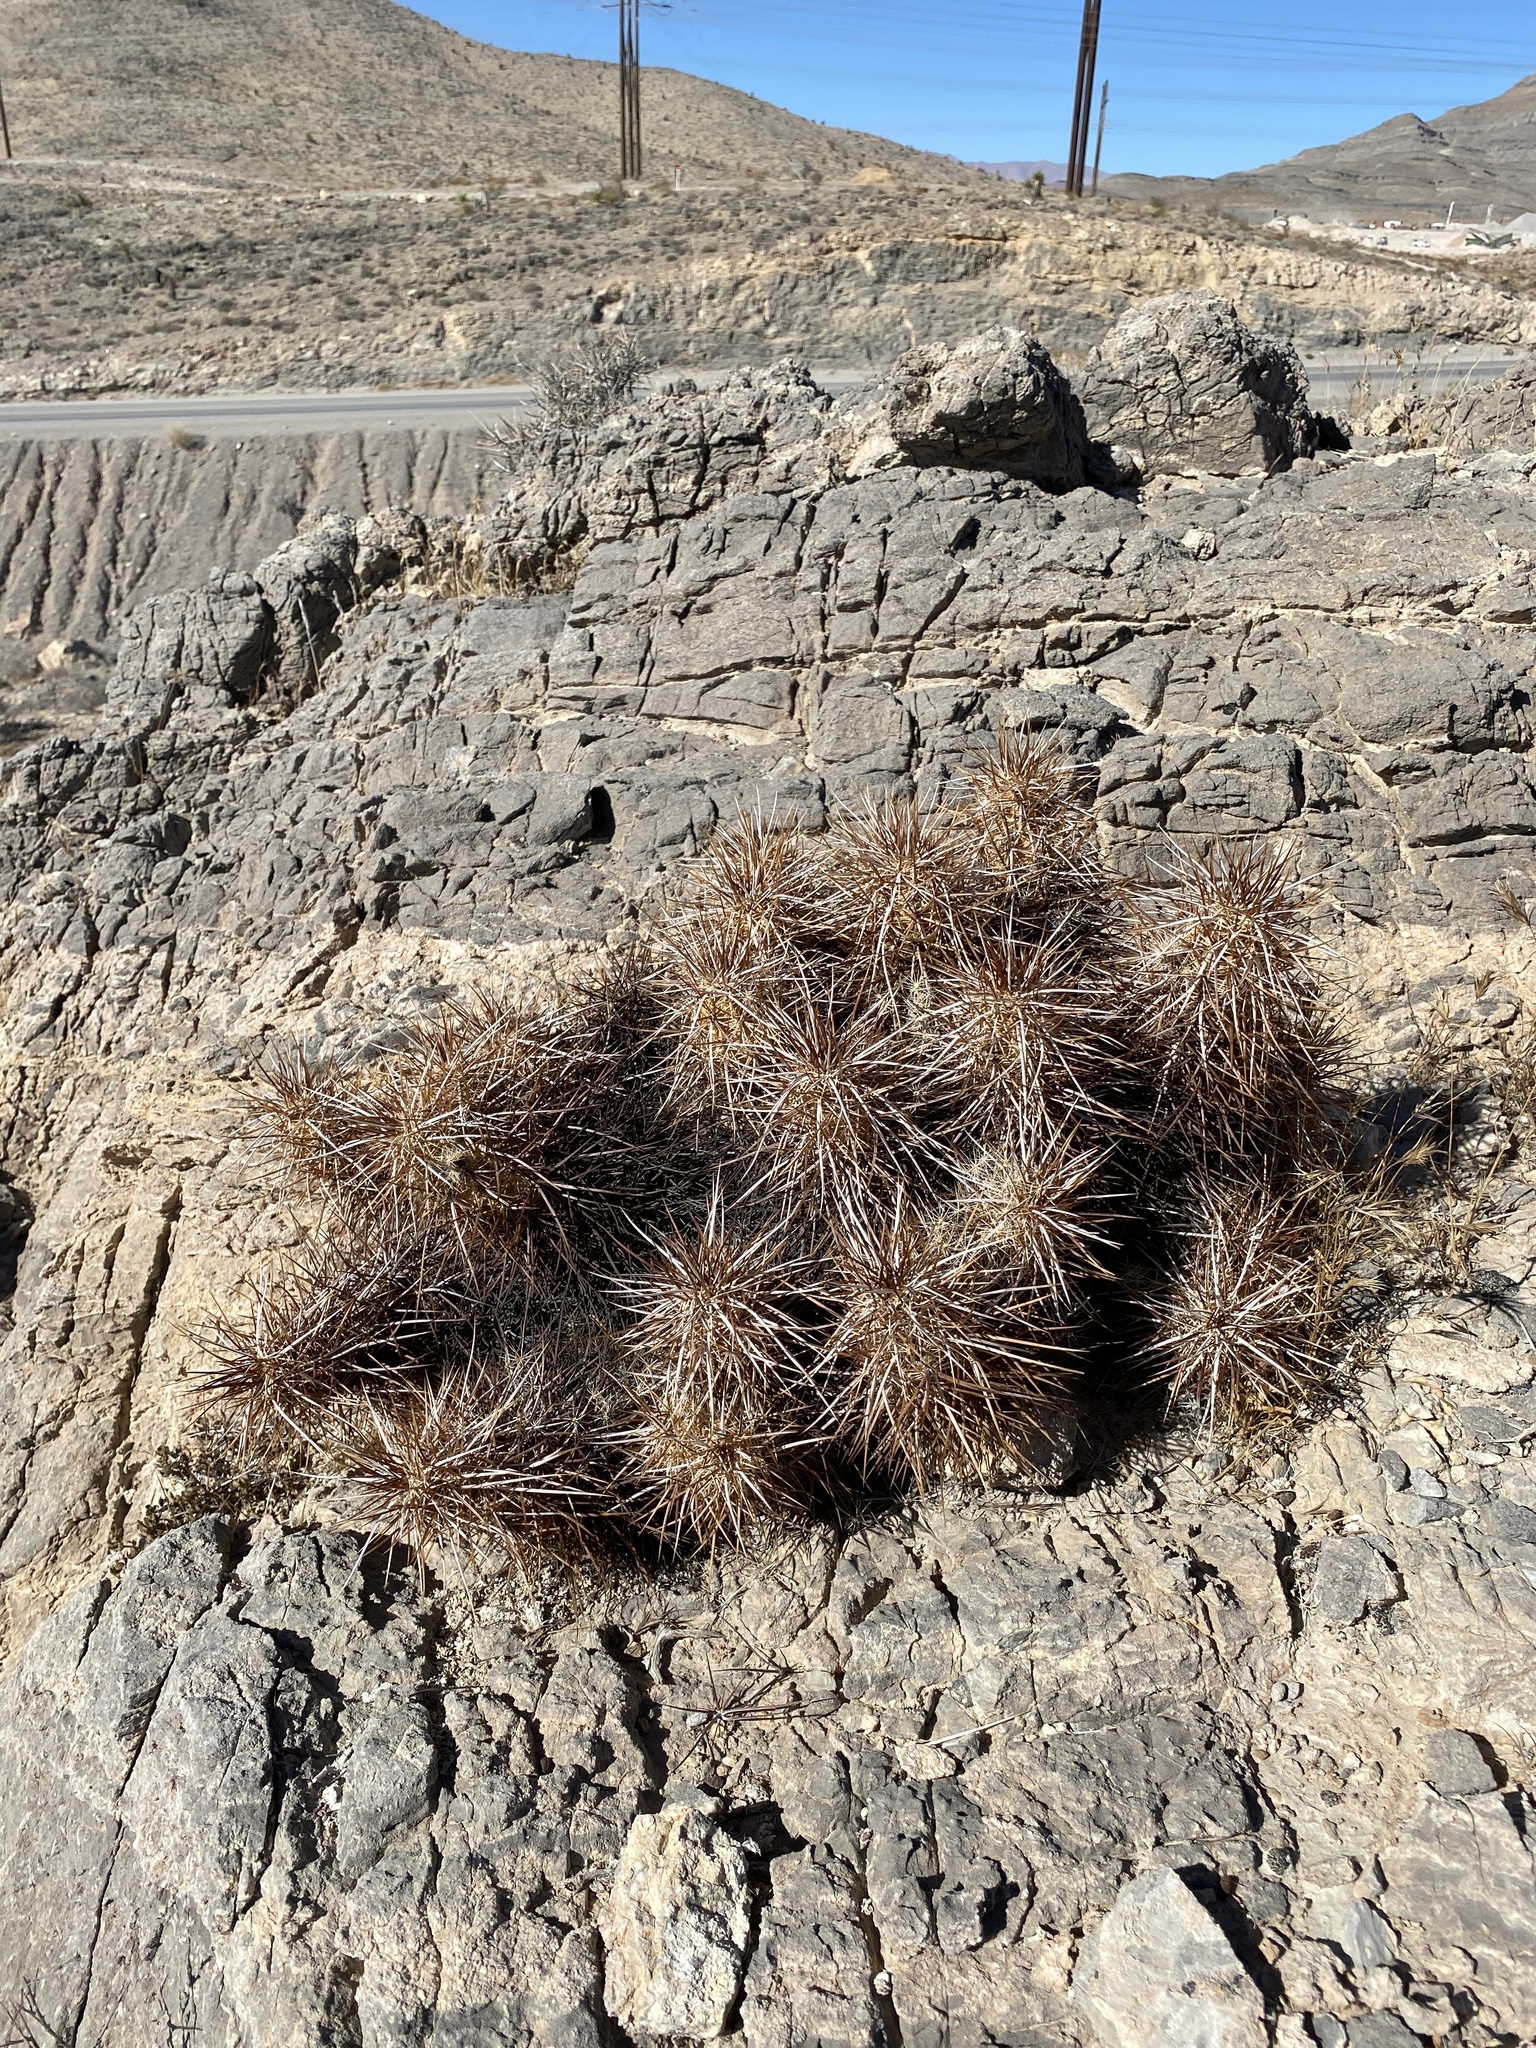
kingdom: Plantae
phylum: Tracheophyta
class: Magnoliopsida
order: Caryophyllales
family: Cactaceae
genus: Echinocereus
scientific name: Echinocereus engelmannii
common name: Engelmann's hedgehog cactus
